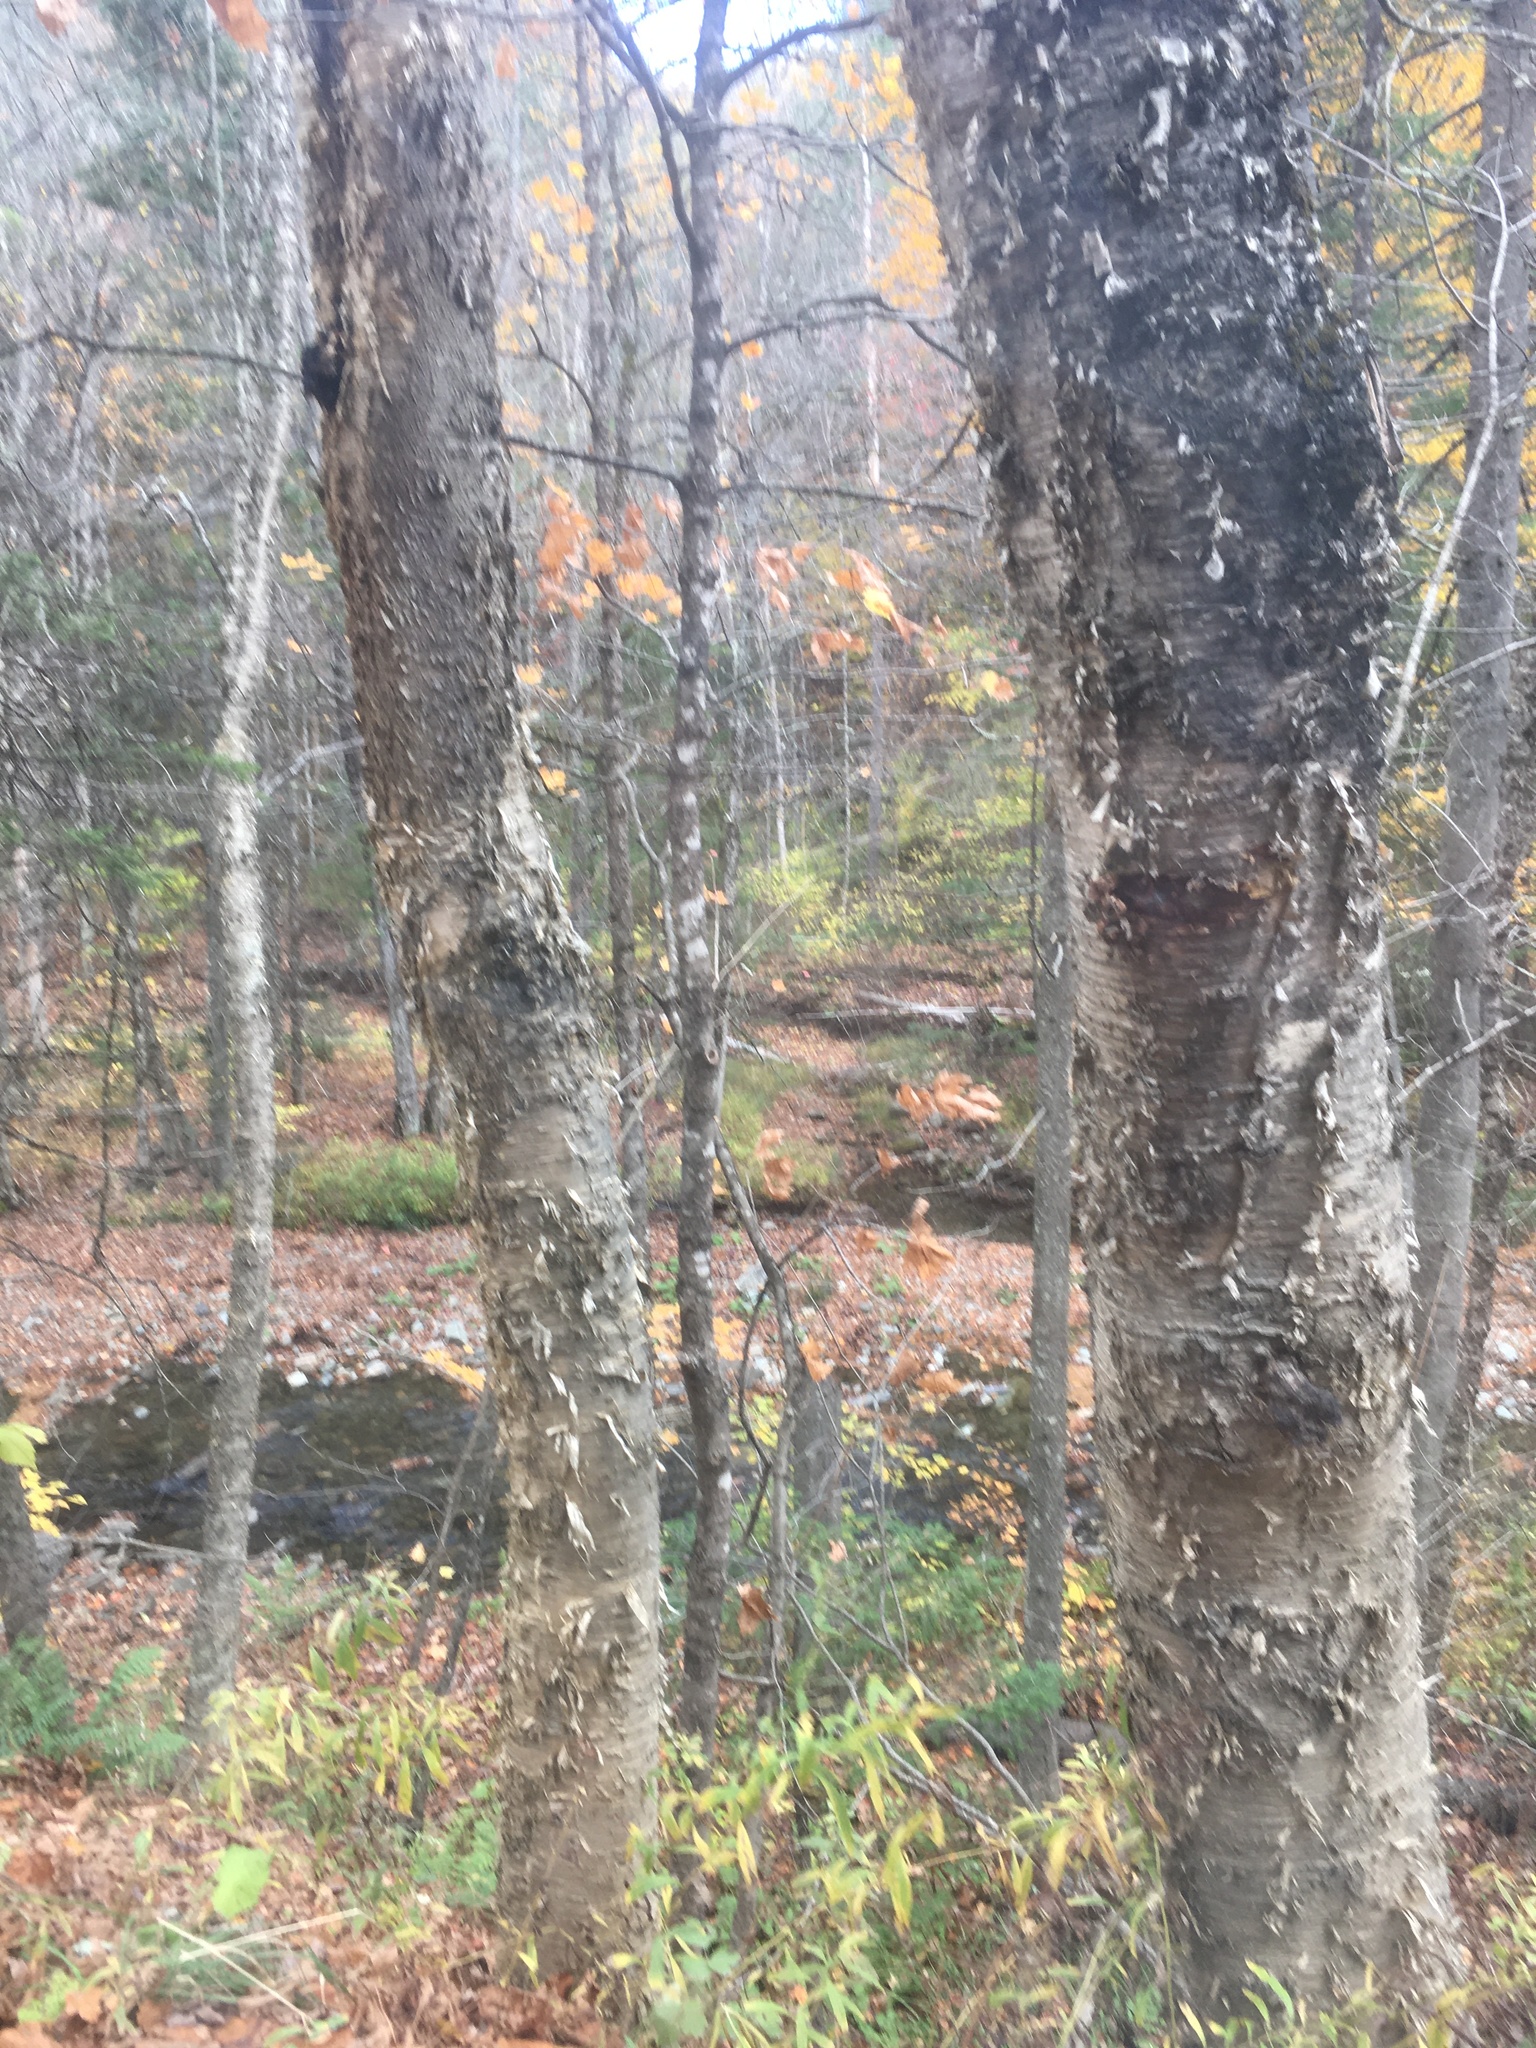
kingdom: Plantae
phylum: Tracheophyta
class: Magnoliopsida
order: Fagales
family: Betulaceae
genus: Betula
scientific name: Betula alleghaniensis
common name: Yellow birch
